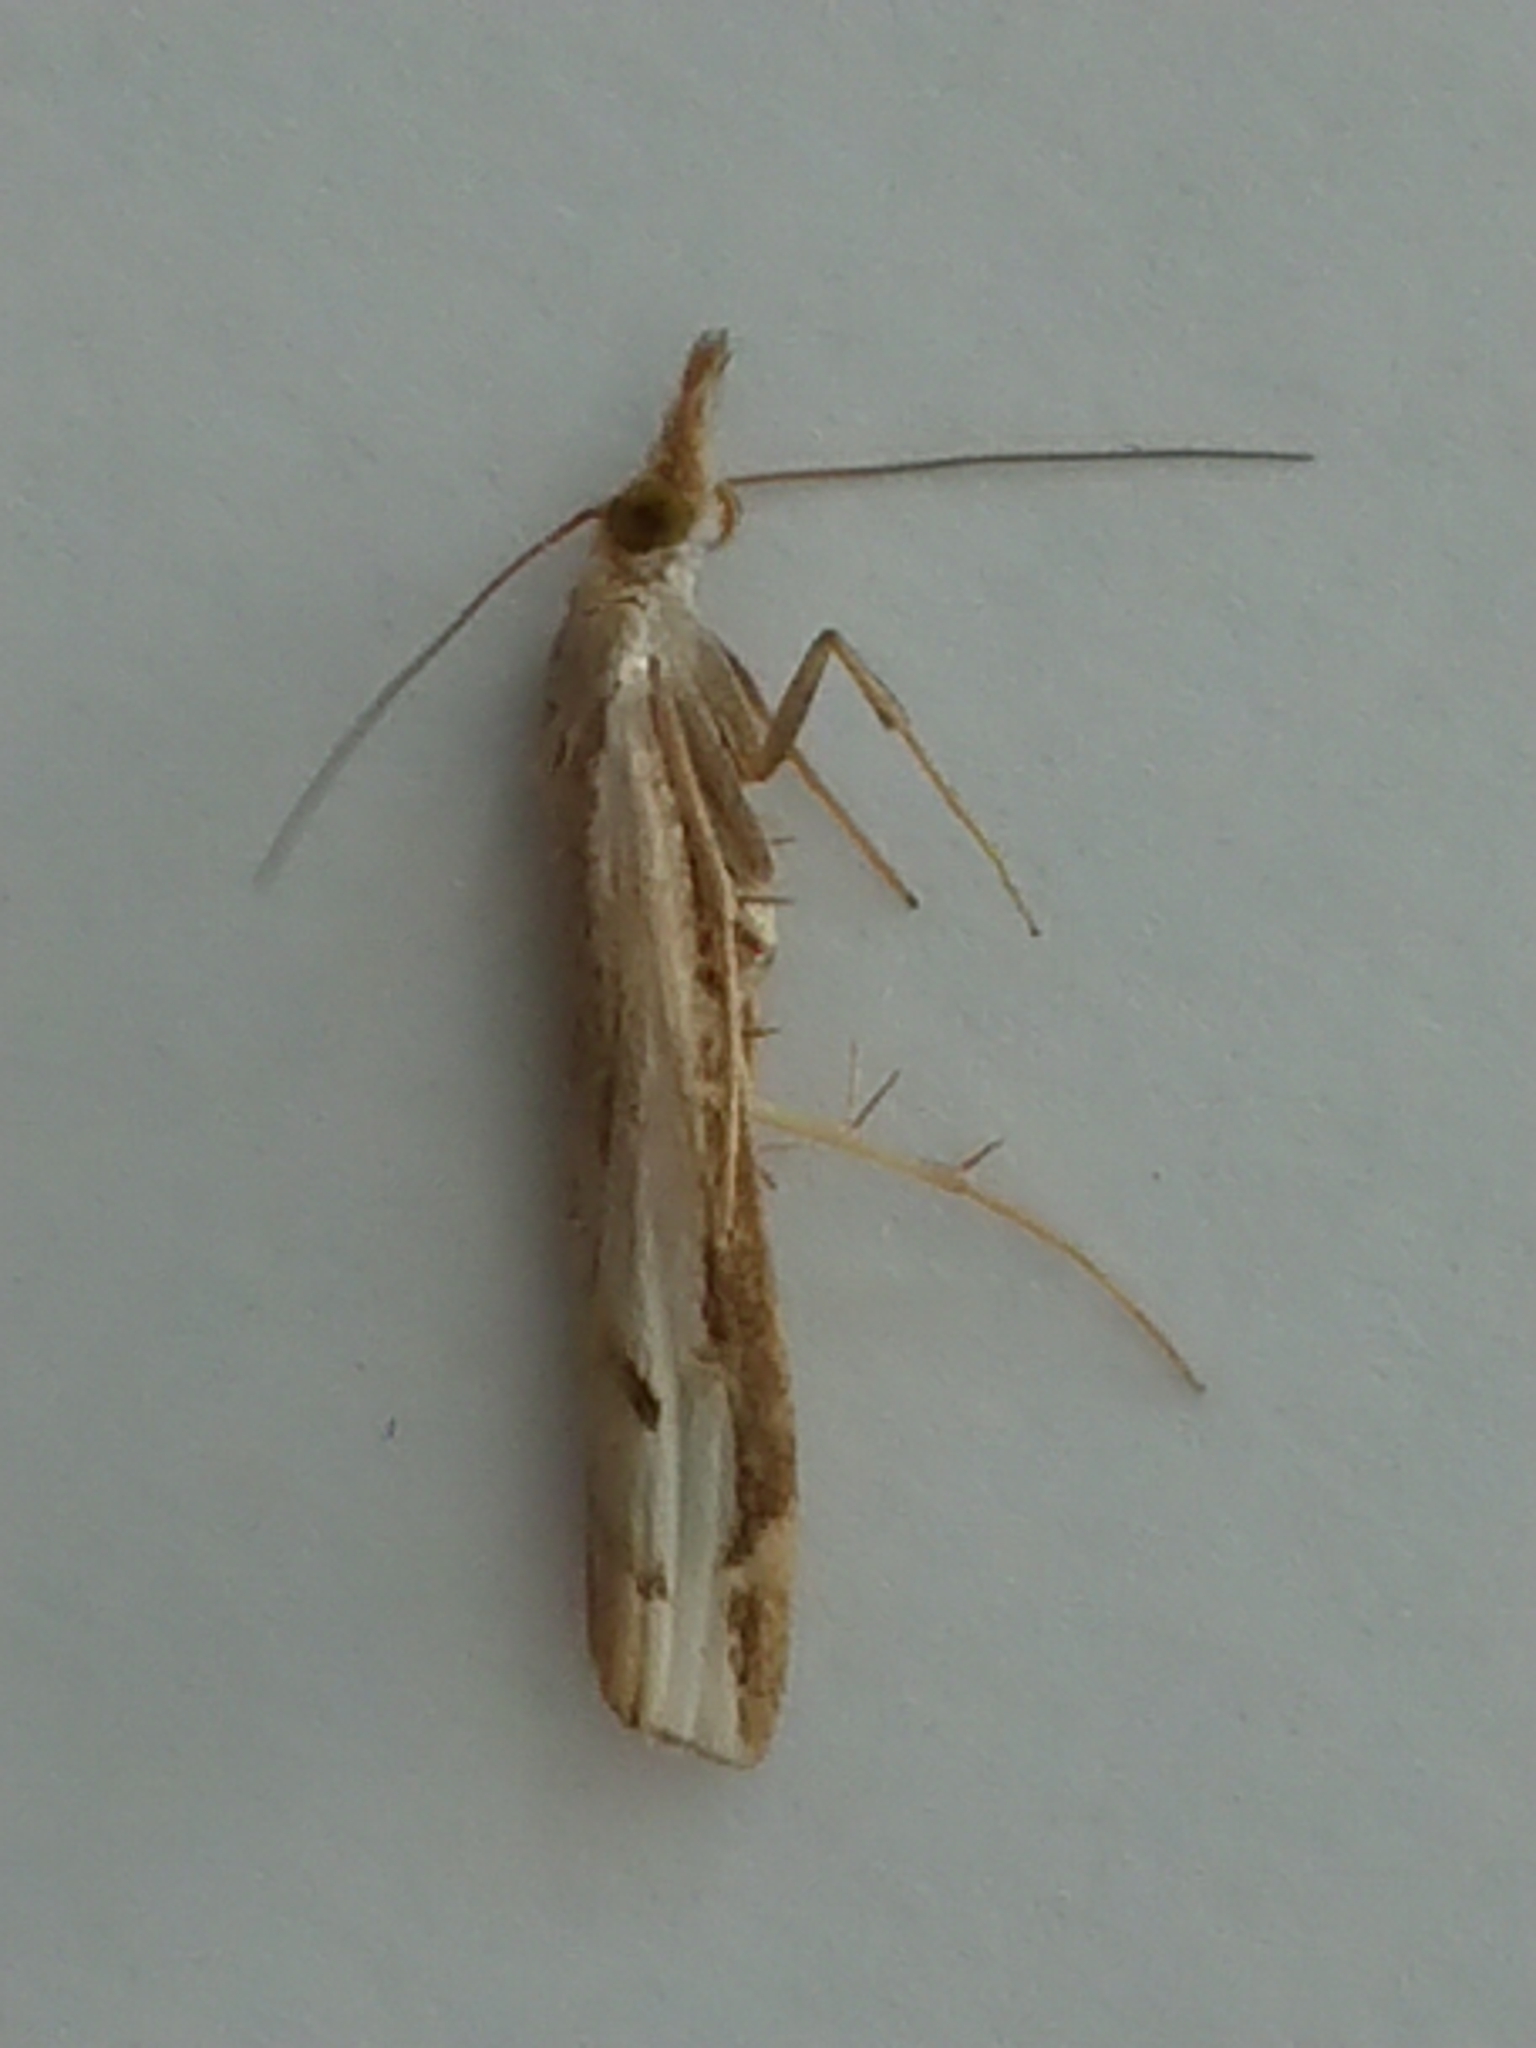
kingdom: Animalia
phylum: Arthropoda
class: Insecta
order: Lepidoptera
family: Crambidae
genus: Orocrambus
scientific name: Orocrambus flexuosellus
